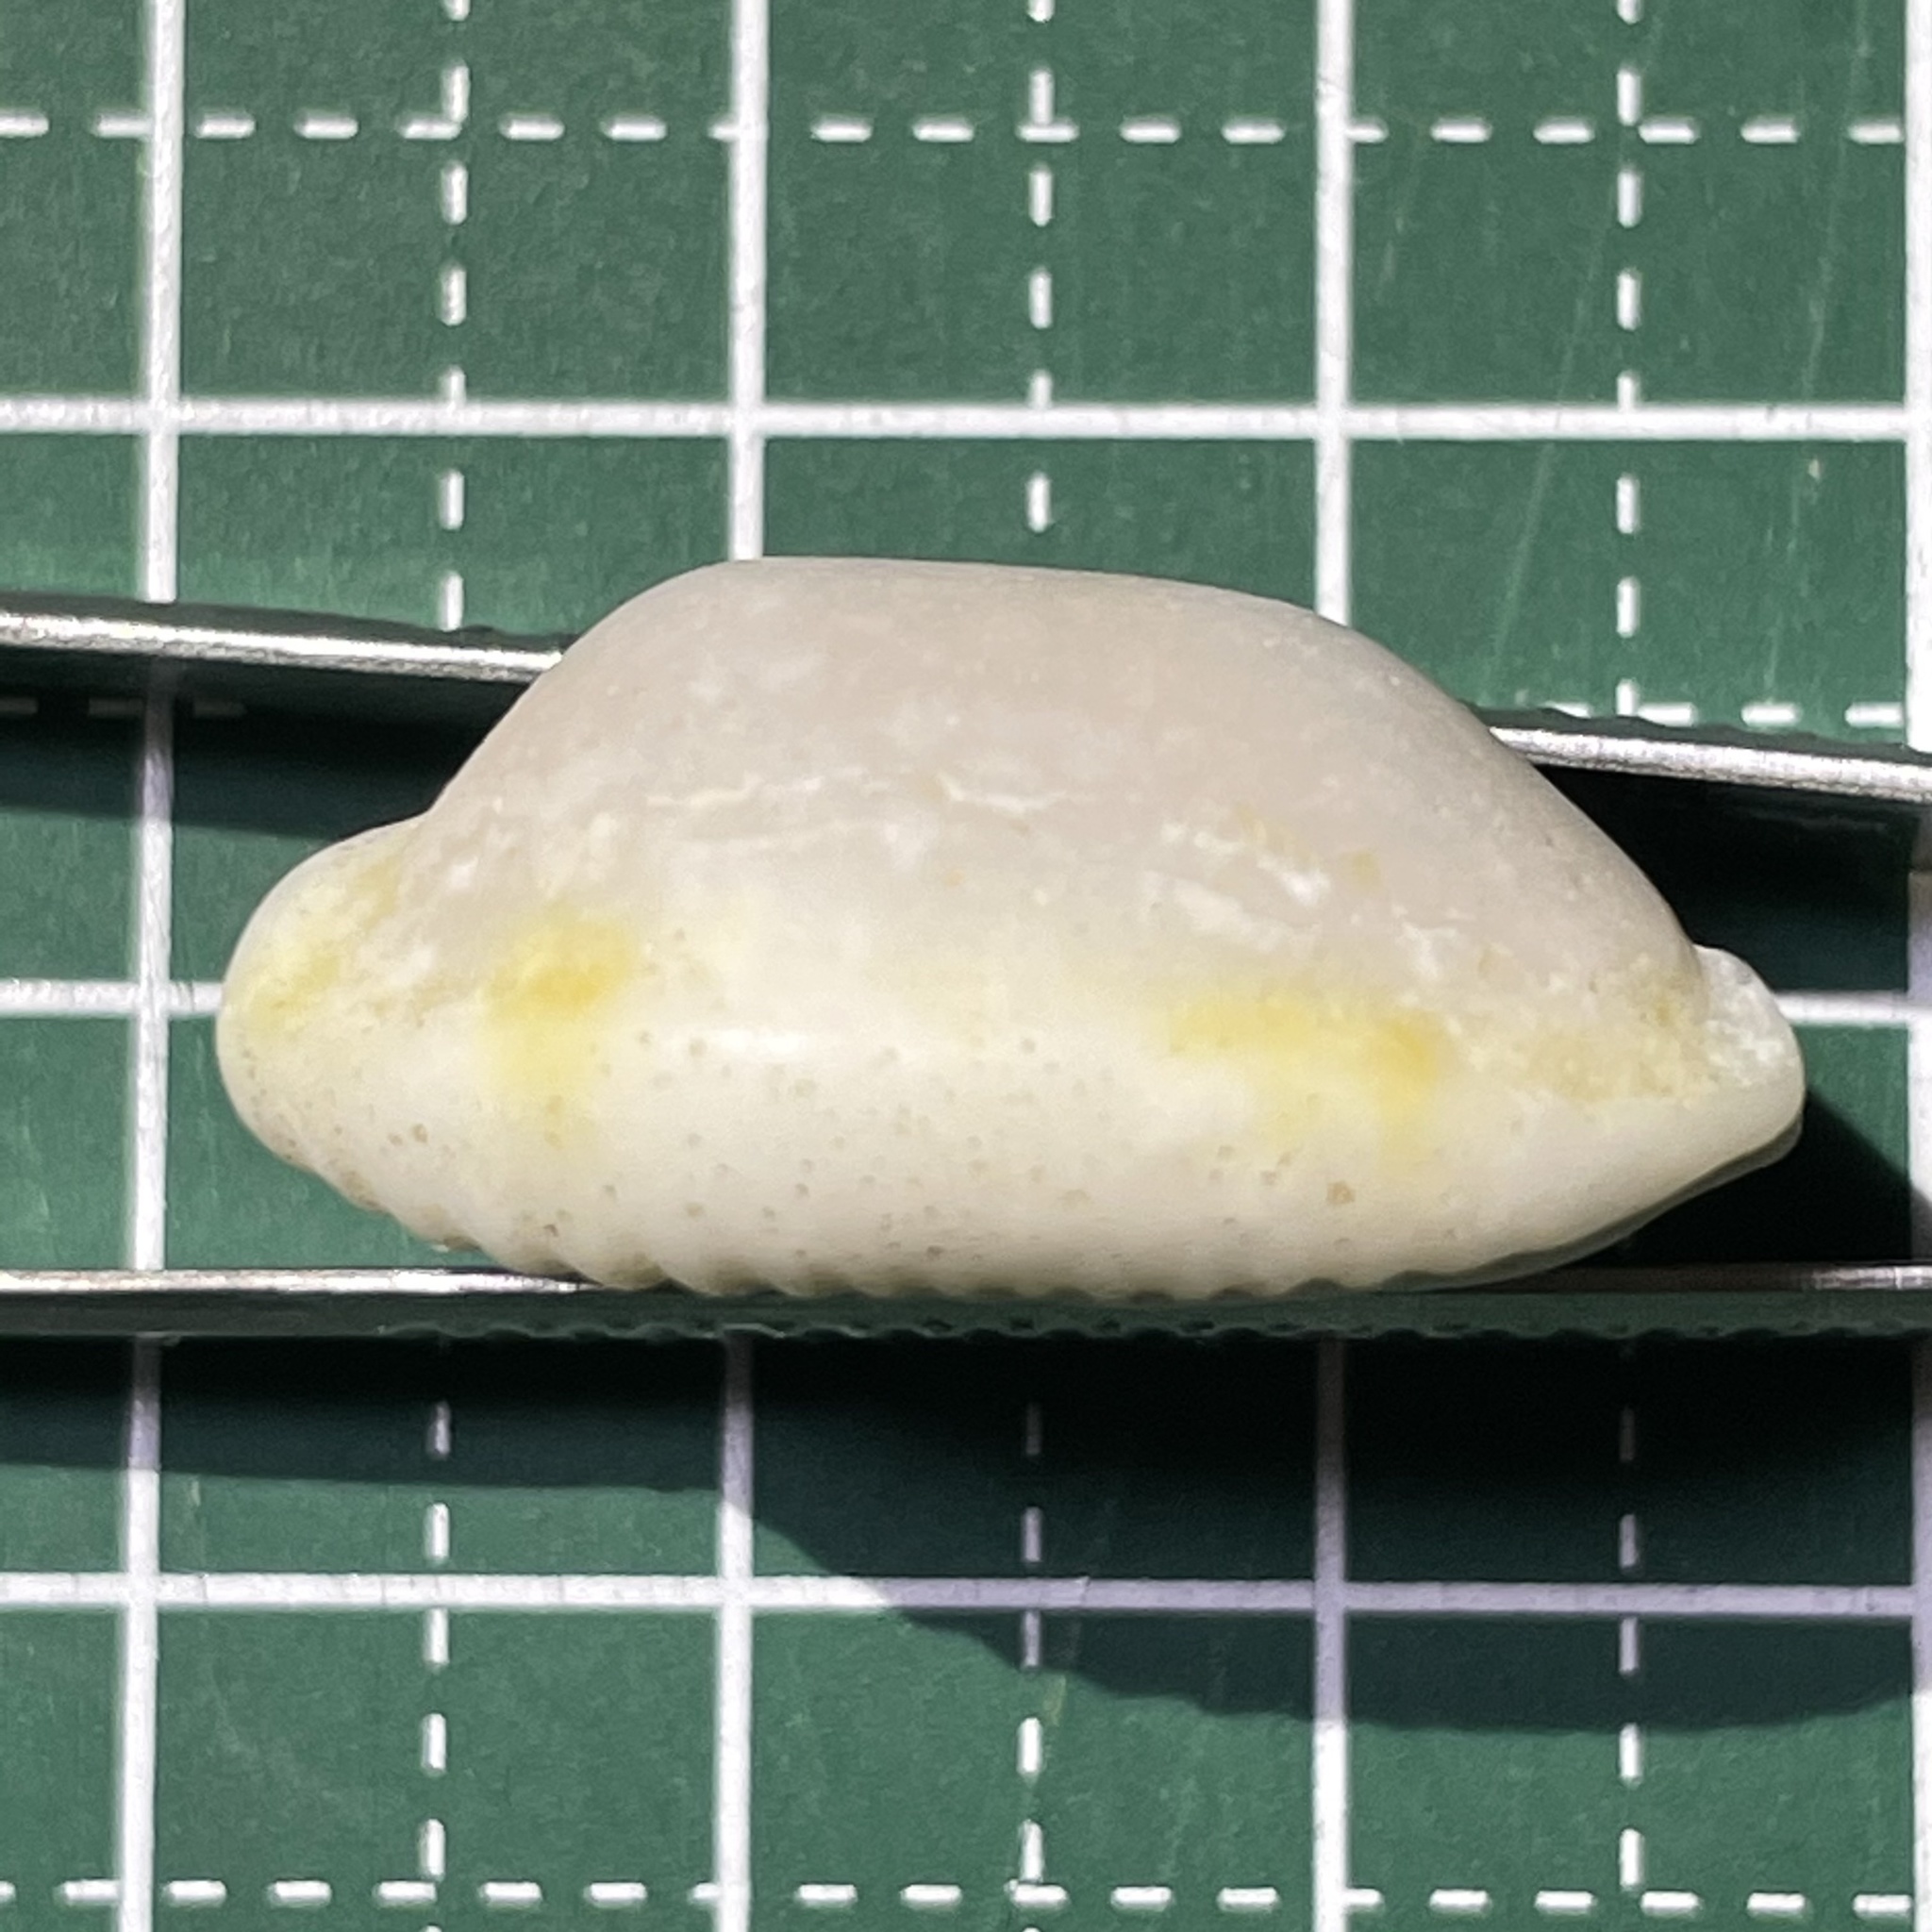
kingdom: Animalia
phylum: Mollusca
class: Gastropoda
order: Littorinimorpha
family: Cypraeidae
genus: Bistolida
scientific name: Bistolida stolida
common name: Stolid cowrie
